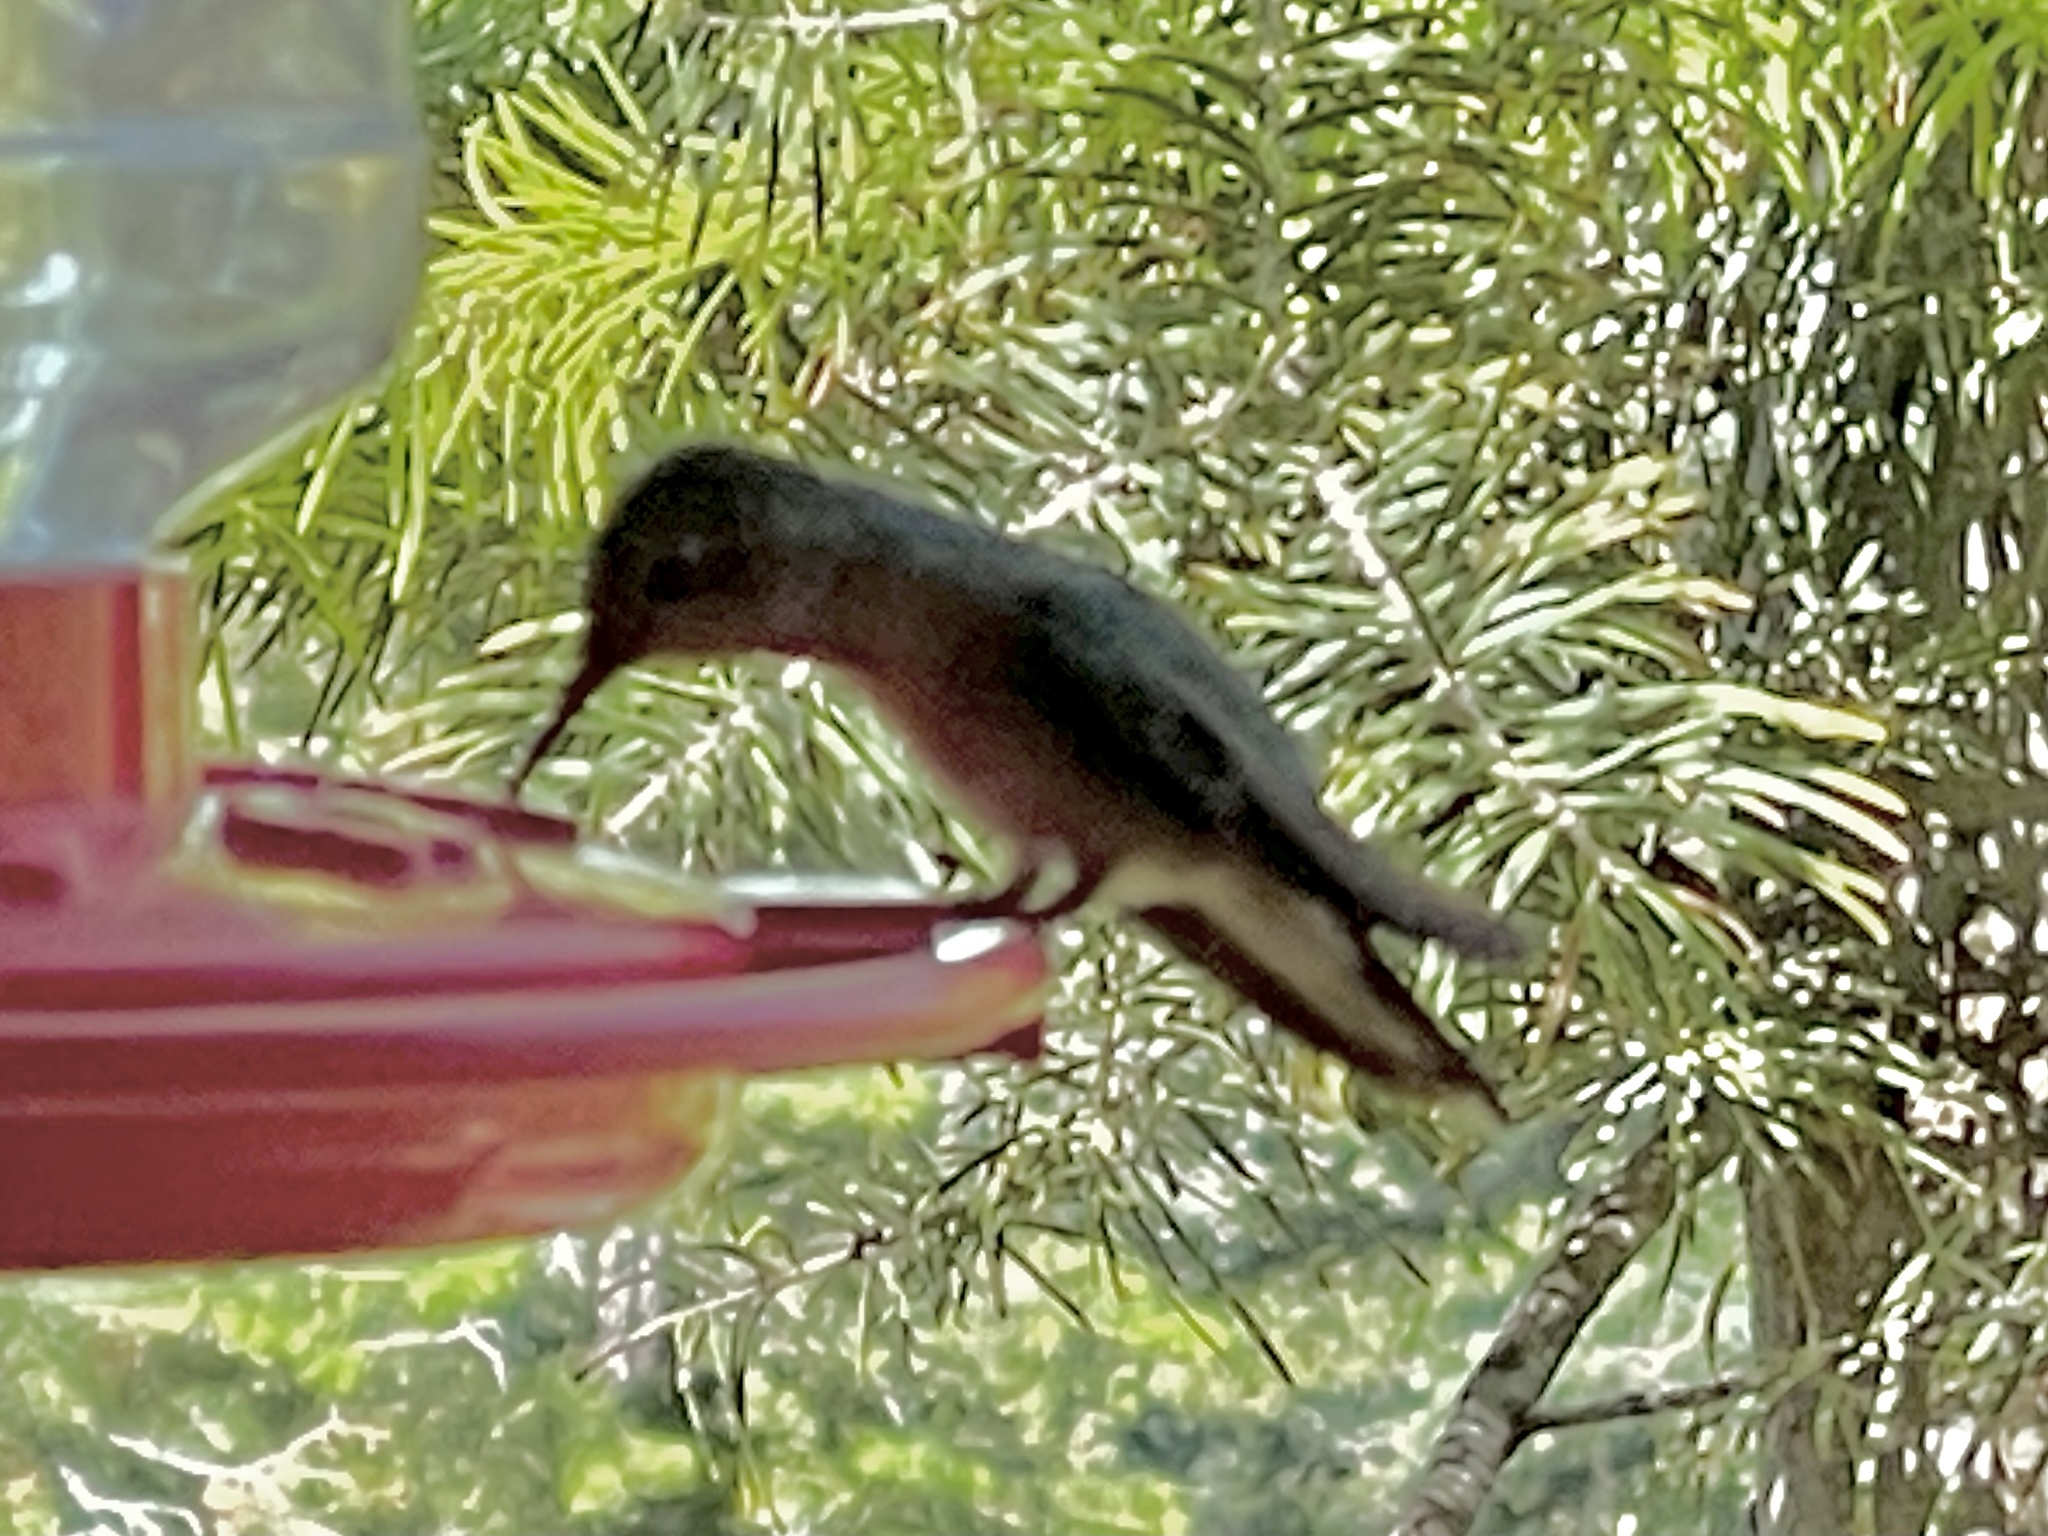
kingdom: Animalia
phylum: Chordata
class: Aves
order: Apodiformes
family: Trochilidae
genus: Selasphorus
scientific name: Selasphorus platycercus
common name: Broad-tailed hummingbird
